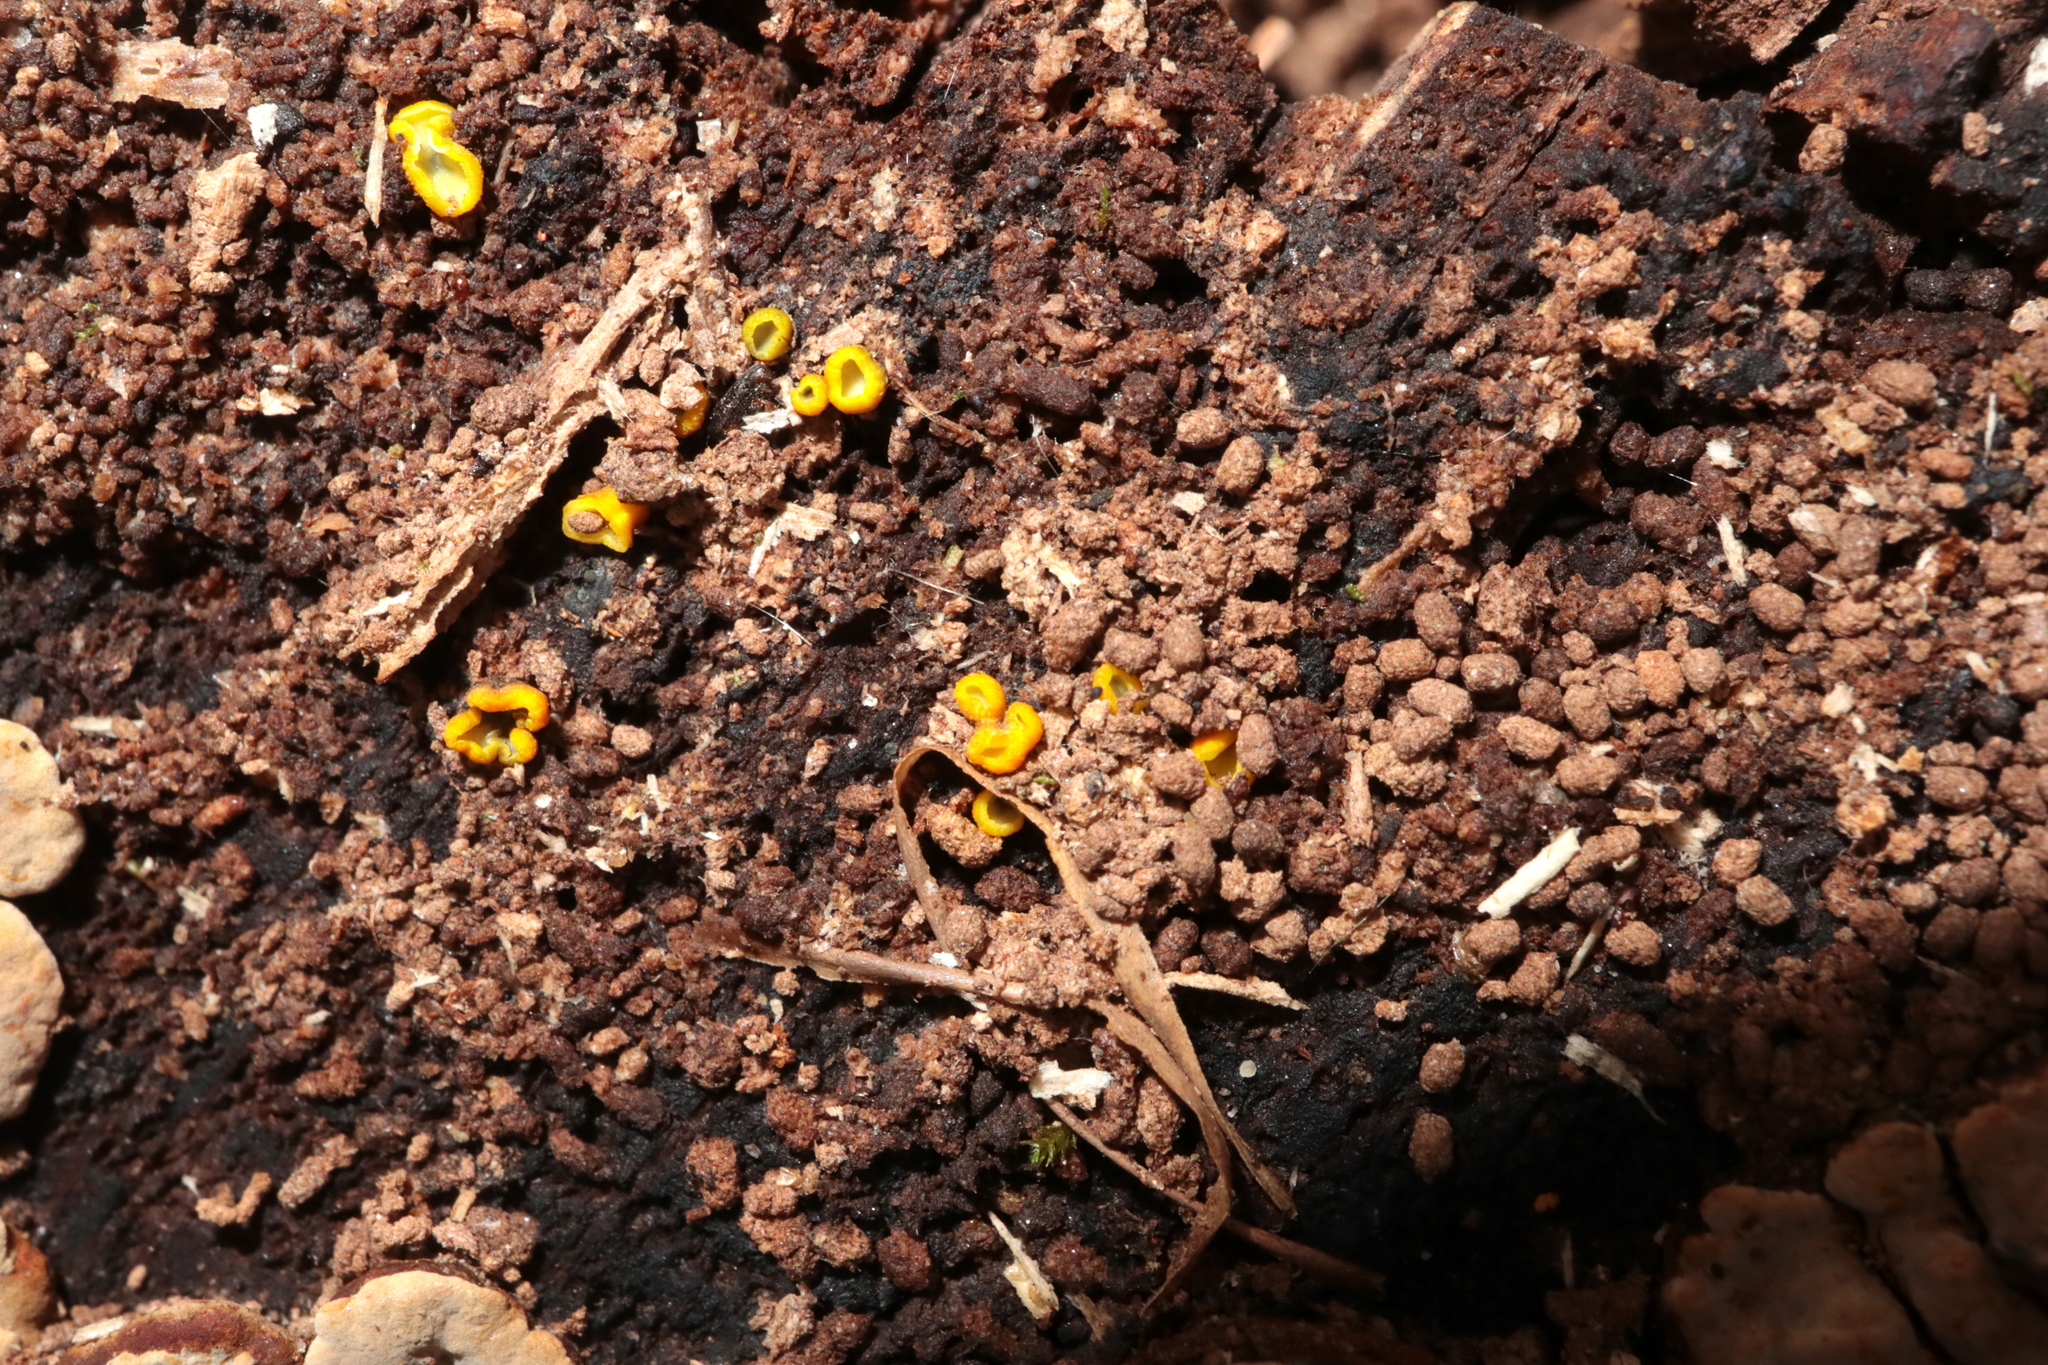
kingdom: Fungi
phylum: Ascomycota
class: Leotiomycetes
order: Helotiales
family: Chlorospleniaceae
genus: Chlorosplenium
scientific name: Chlorosplenium chlora
